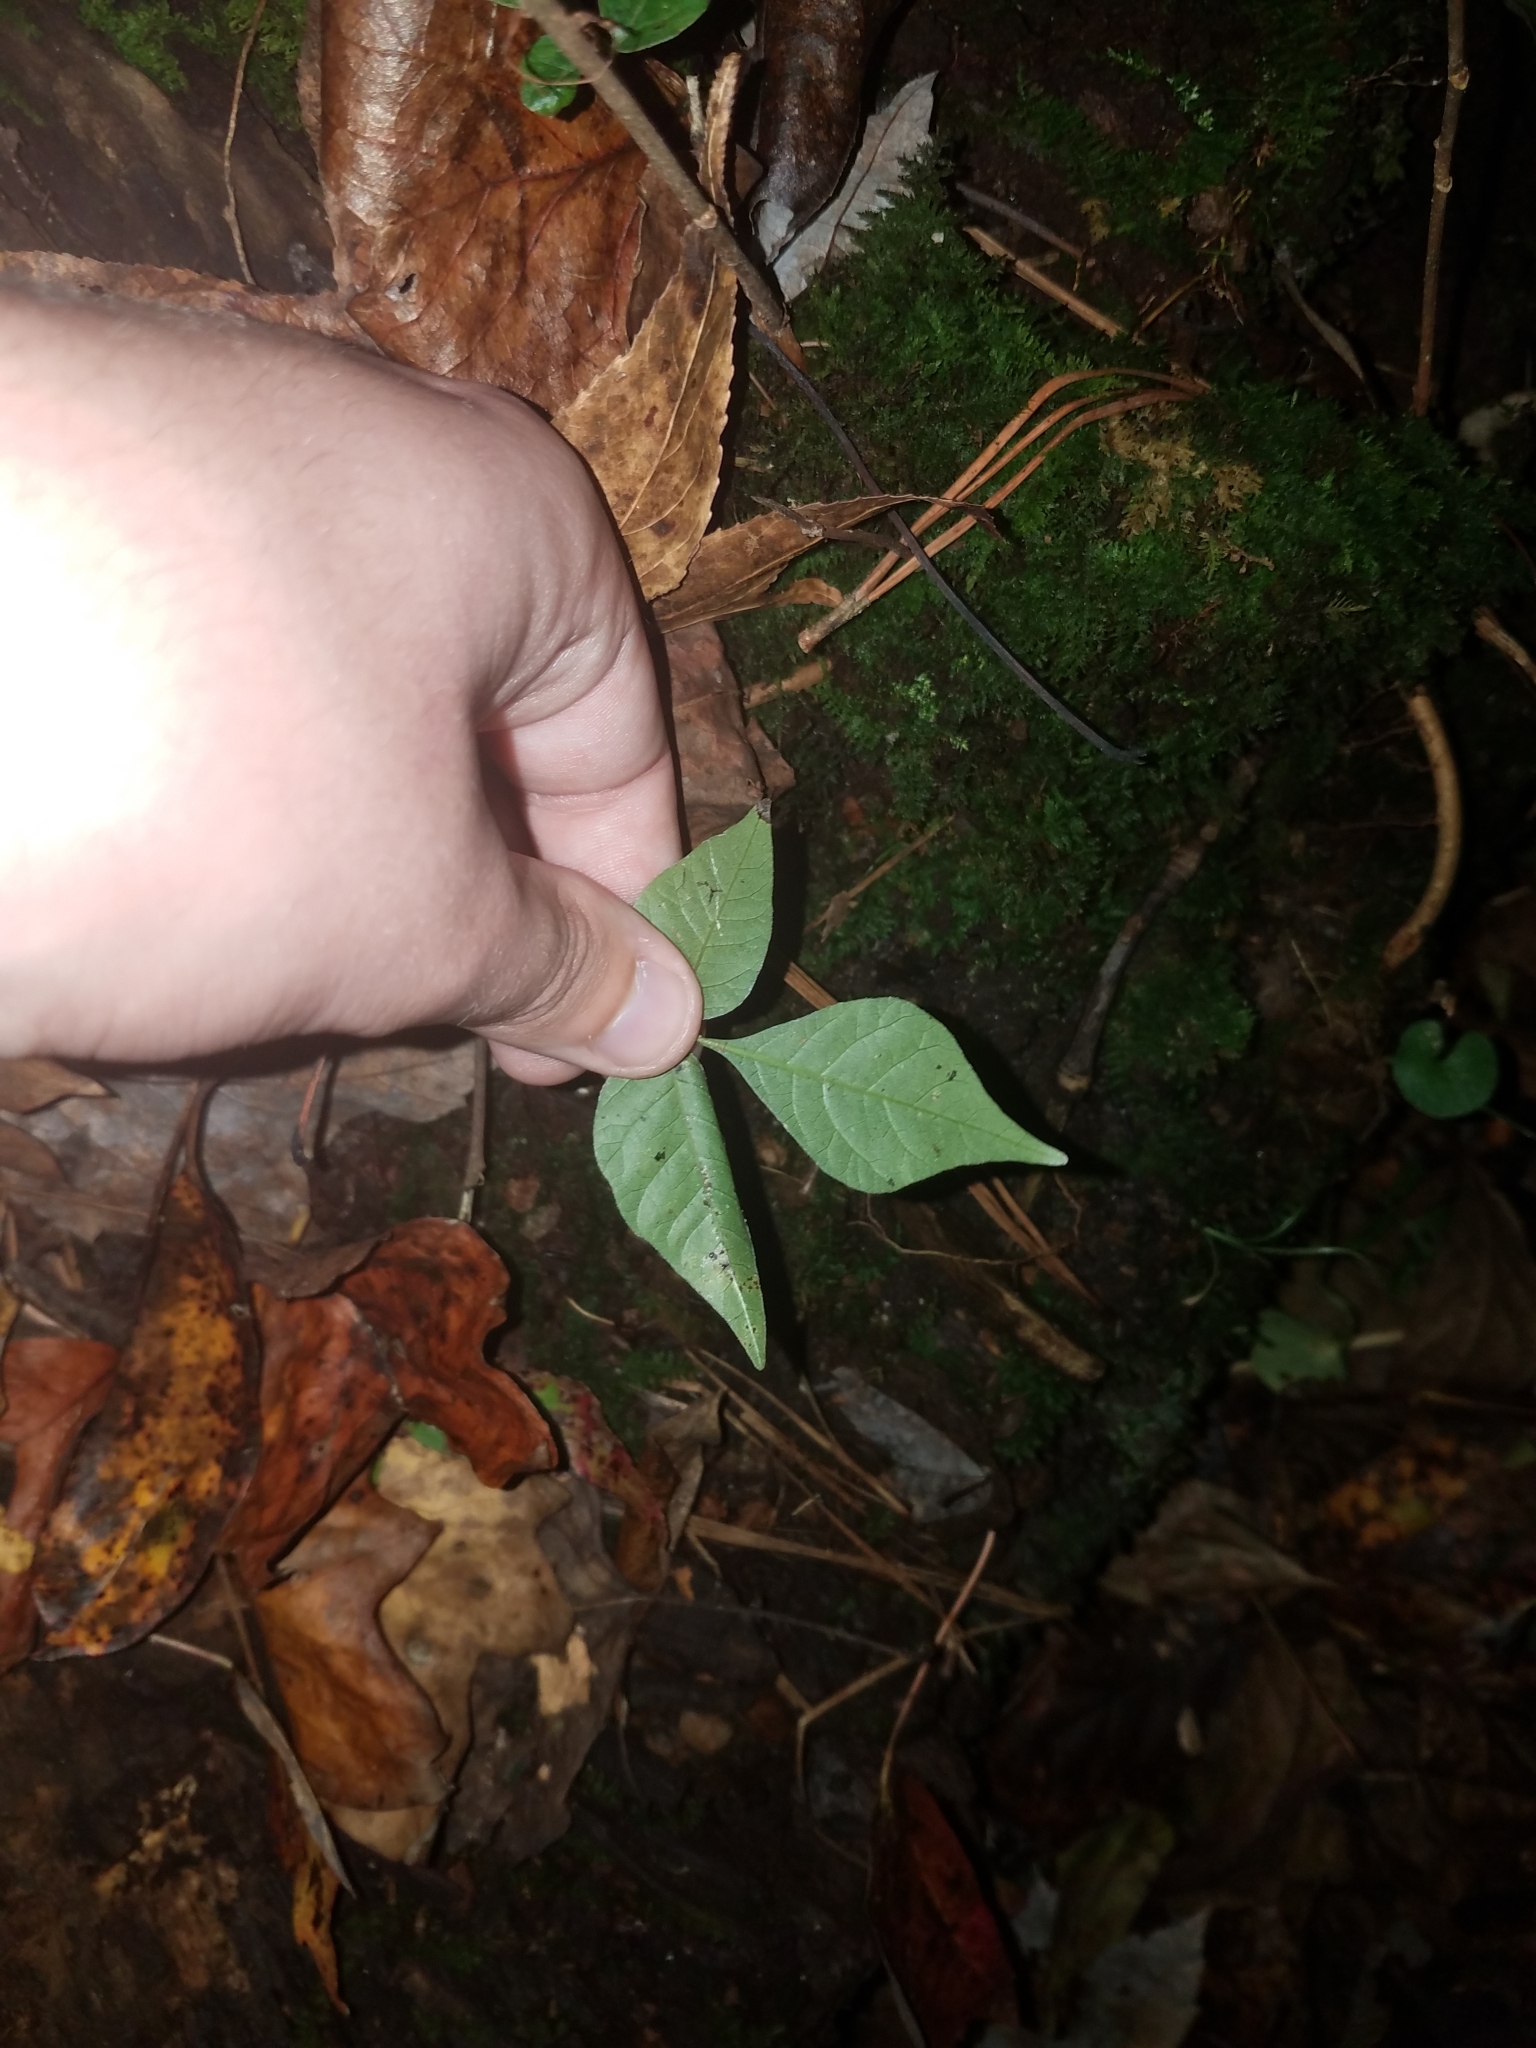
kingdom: Plantae
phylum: Tracheophyta
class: Magnoliopsida
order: Sapindales
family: Anacardiaceae
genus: Toxicodendron
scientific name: Toxicodendron radicans
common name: Poison ivy
